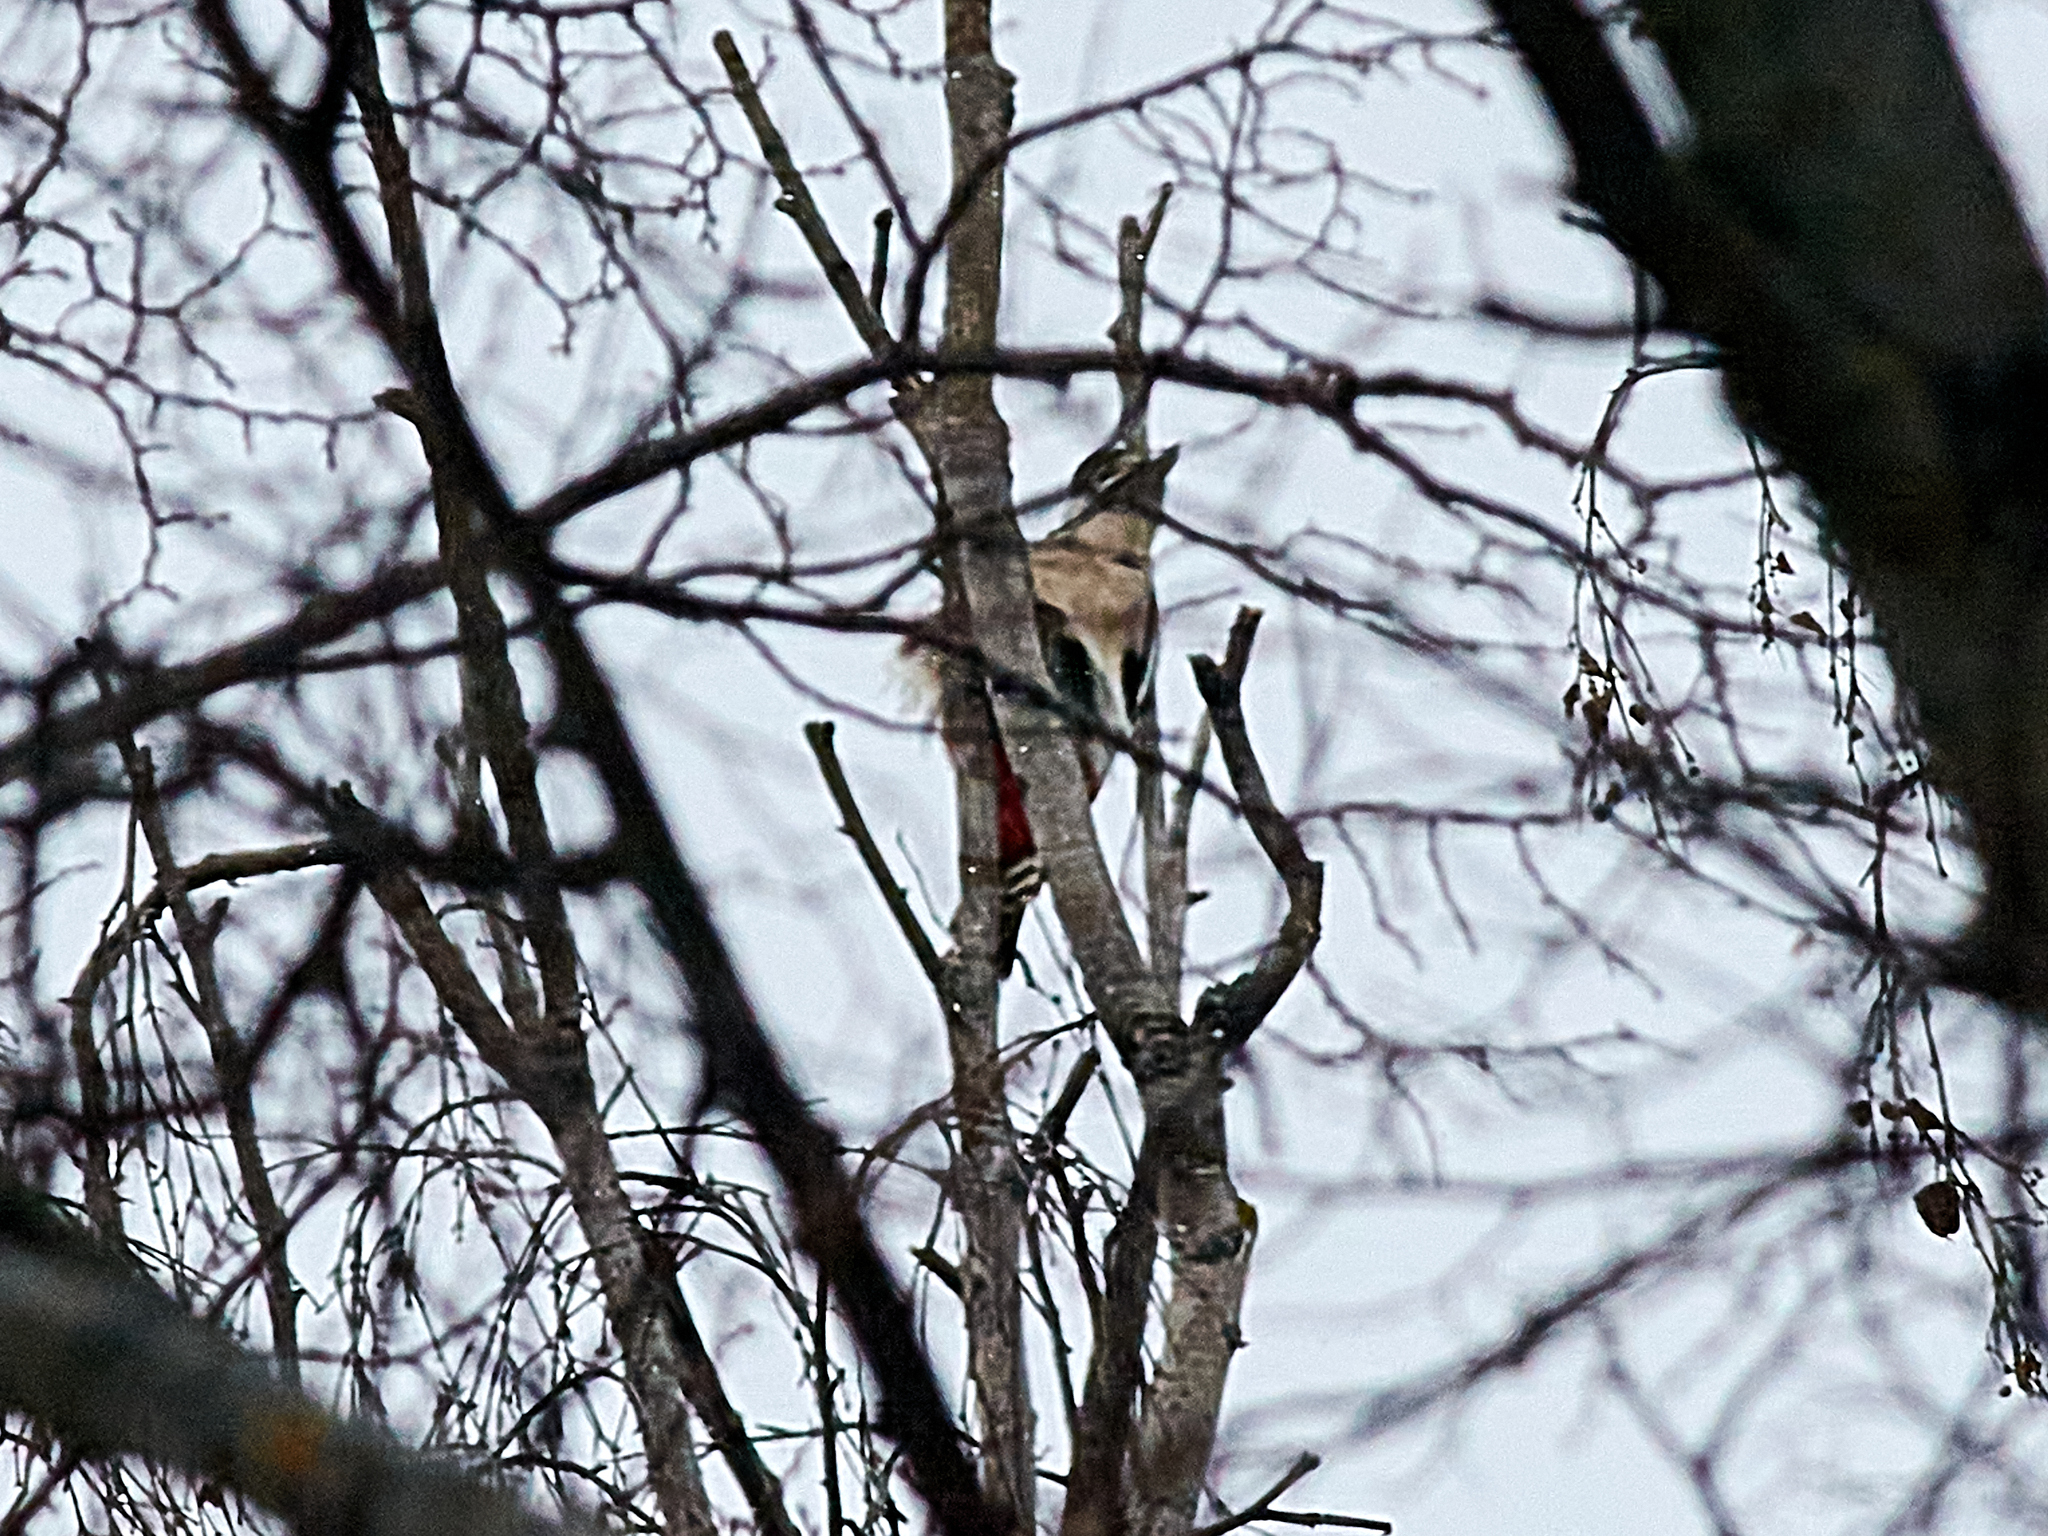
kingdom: Animalia
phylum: Chordata
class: Aves
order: Piciformes
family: Picidae
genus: Dendrocopos
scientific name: Dendrocopos major
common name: Great spotted woodpecker
